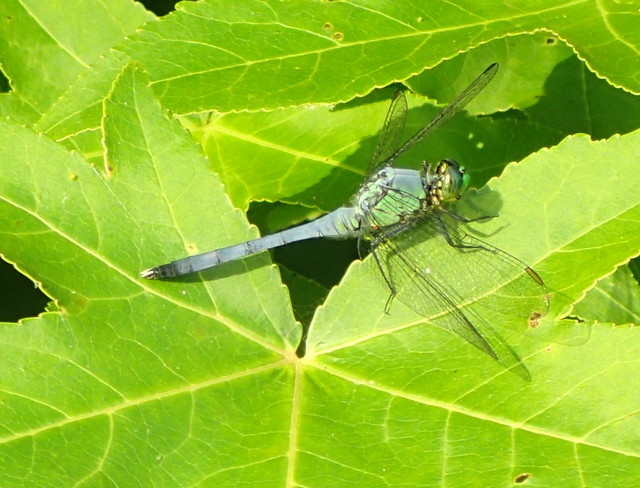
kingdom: Animalia
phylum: Arthropoda
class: Insecta
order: Odonata
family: Libellulidae
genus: Erythemis
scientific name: Erythemis simplicicollis
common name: Eastern pondhawk
